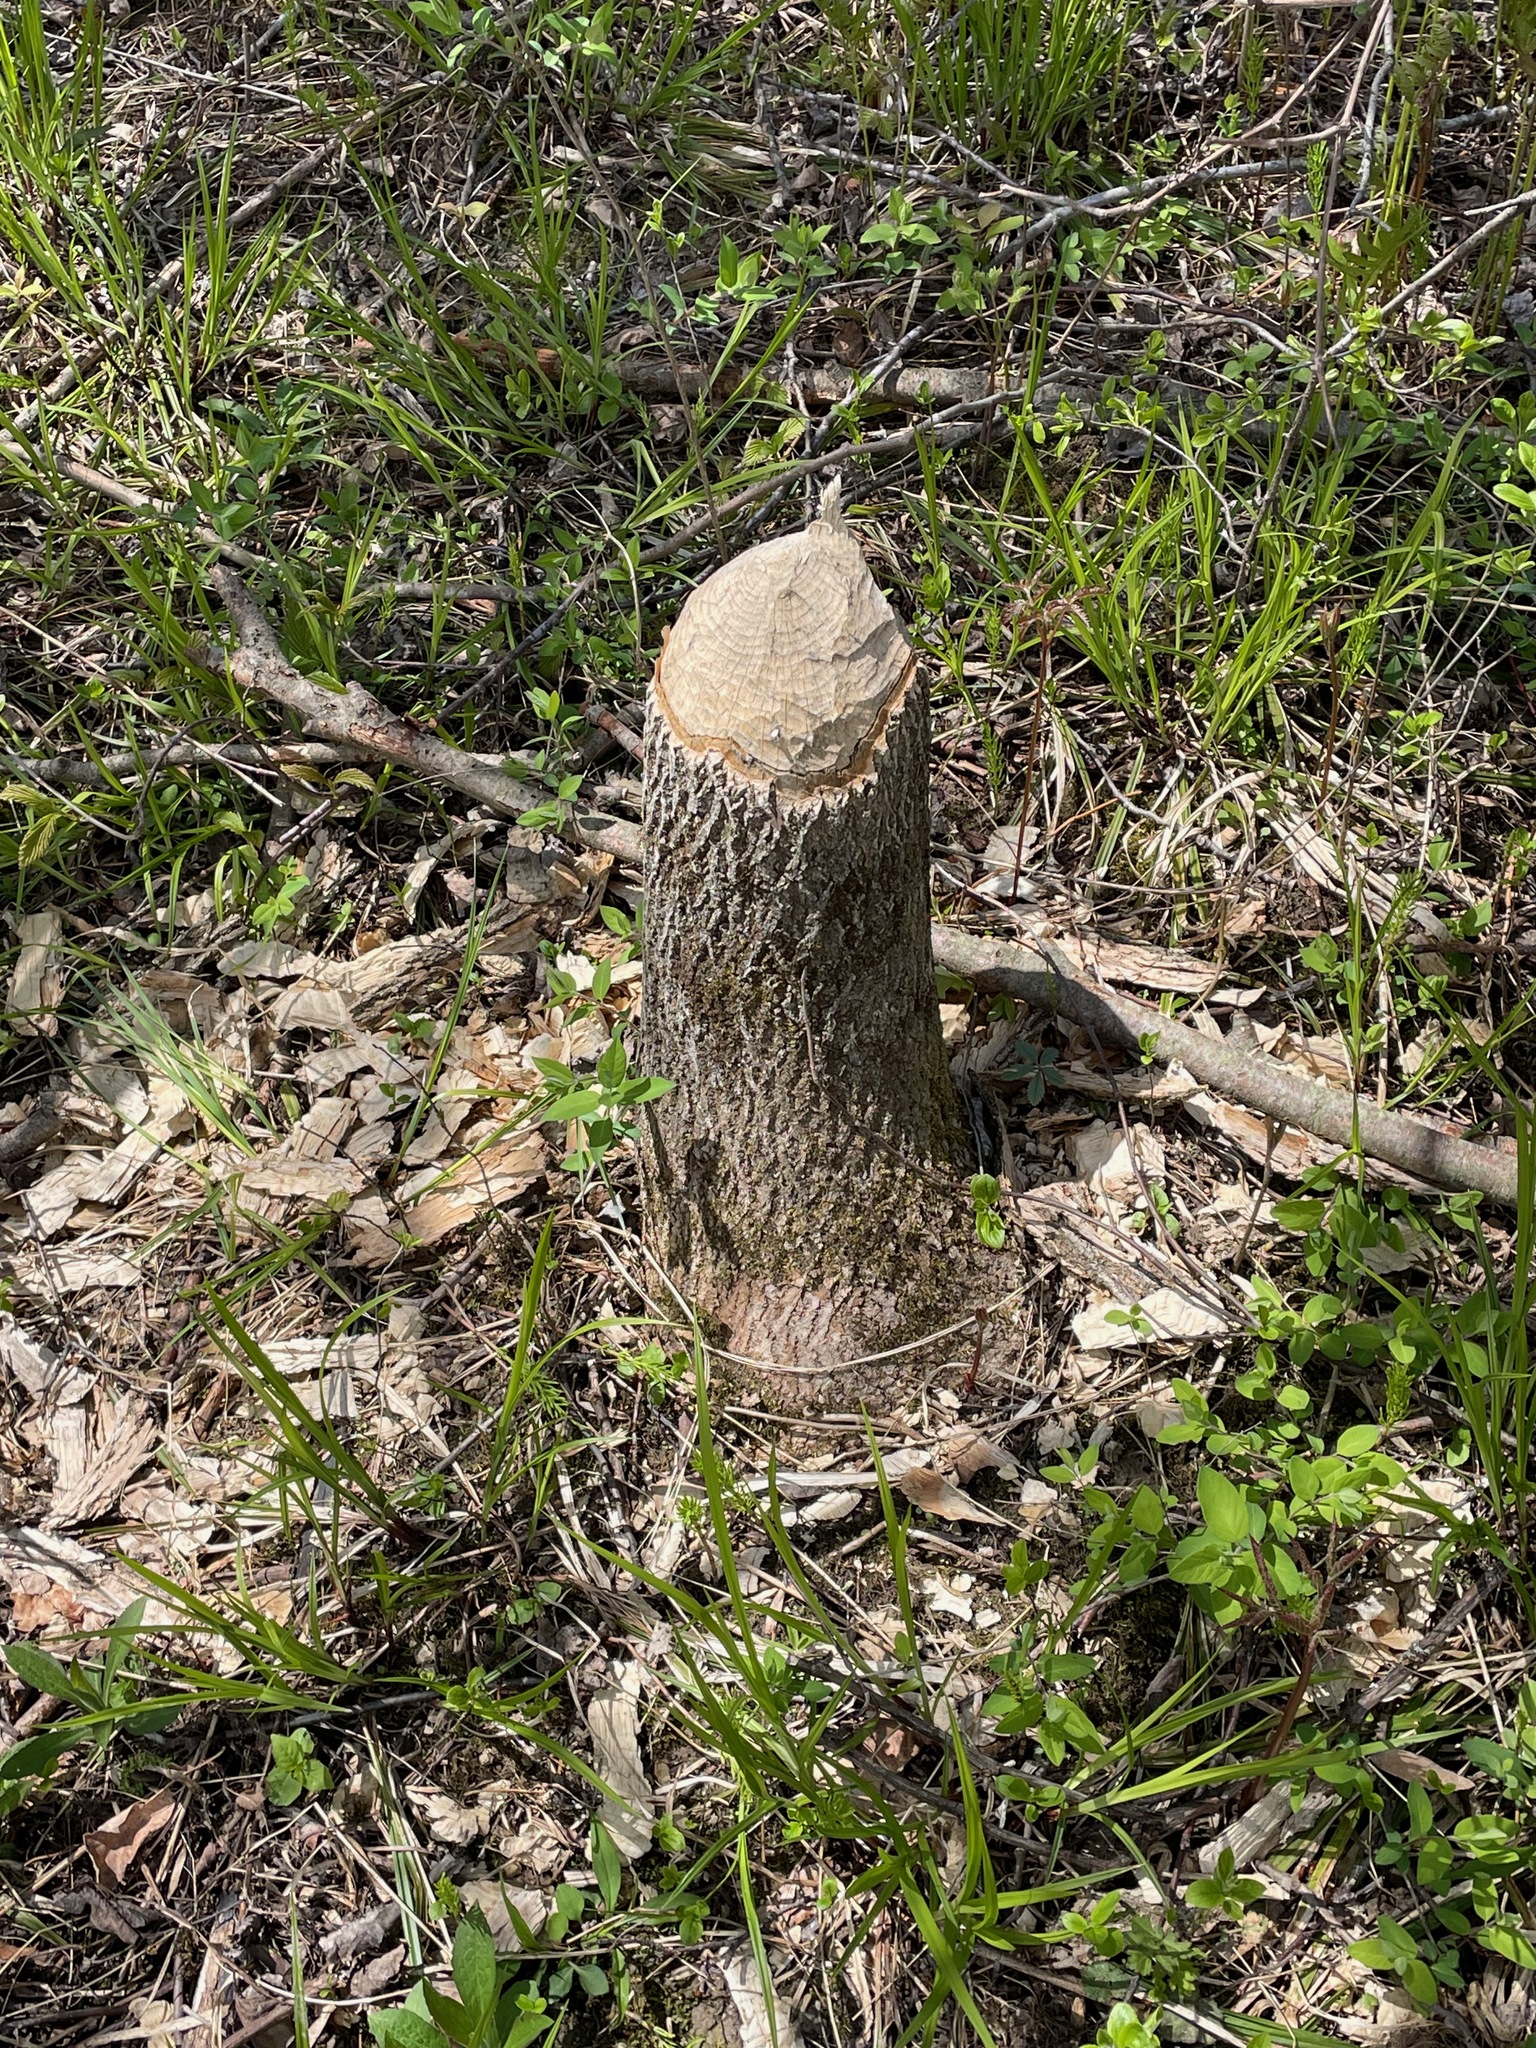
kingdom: Animalia
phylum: Chordata
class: Mammalia
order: Rodentia
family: Castoridae
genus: Castor
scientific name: Castor canadensis
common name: American beaver
